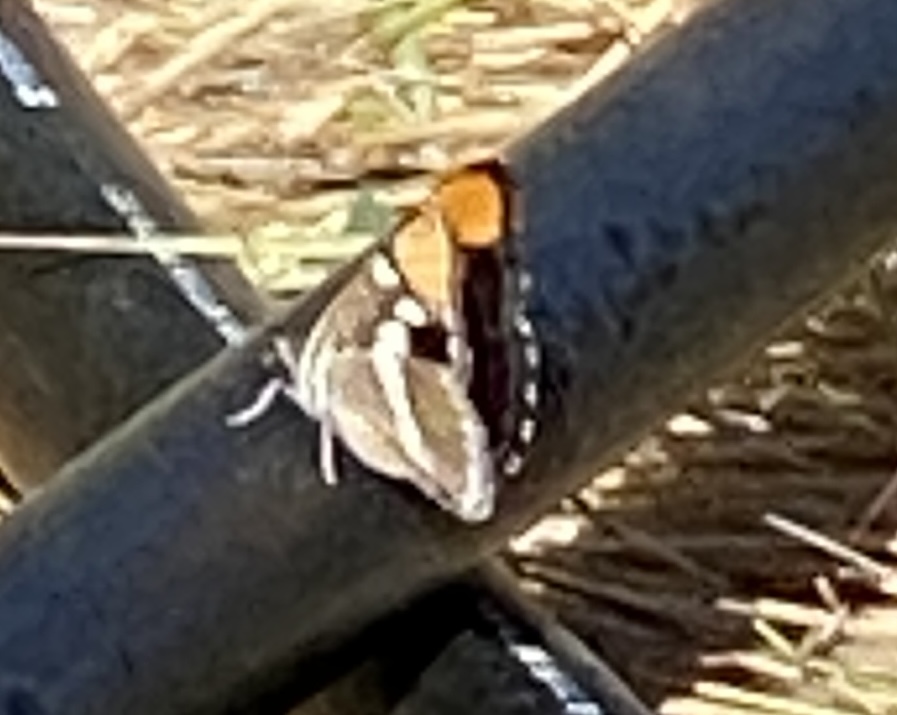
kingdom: Animalia
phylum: Arthropoda
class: Insecta
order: Lepidoptera
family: Nymphalidae
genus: Limenitis
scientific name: Limenitis bredowii
